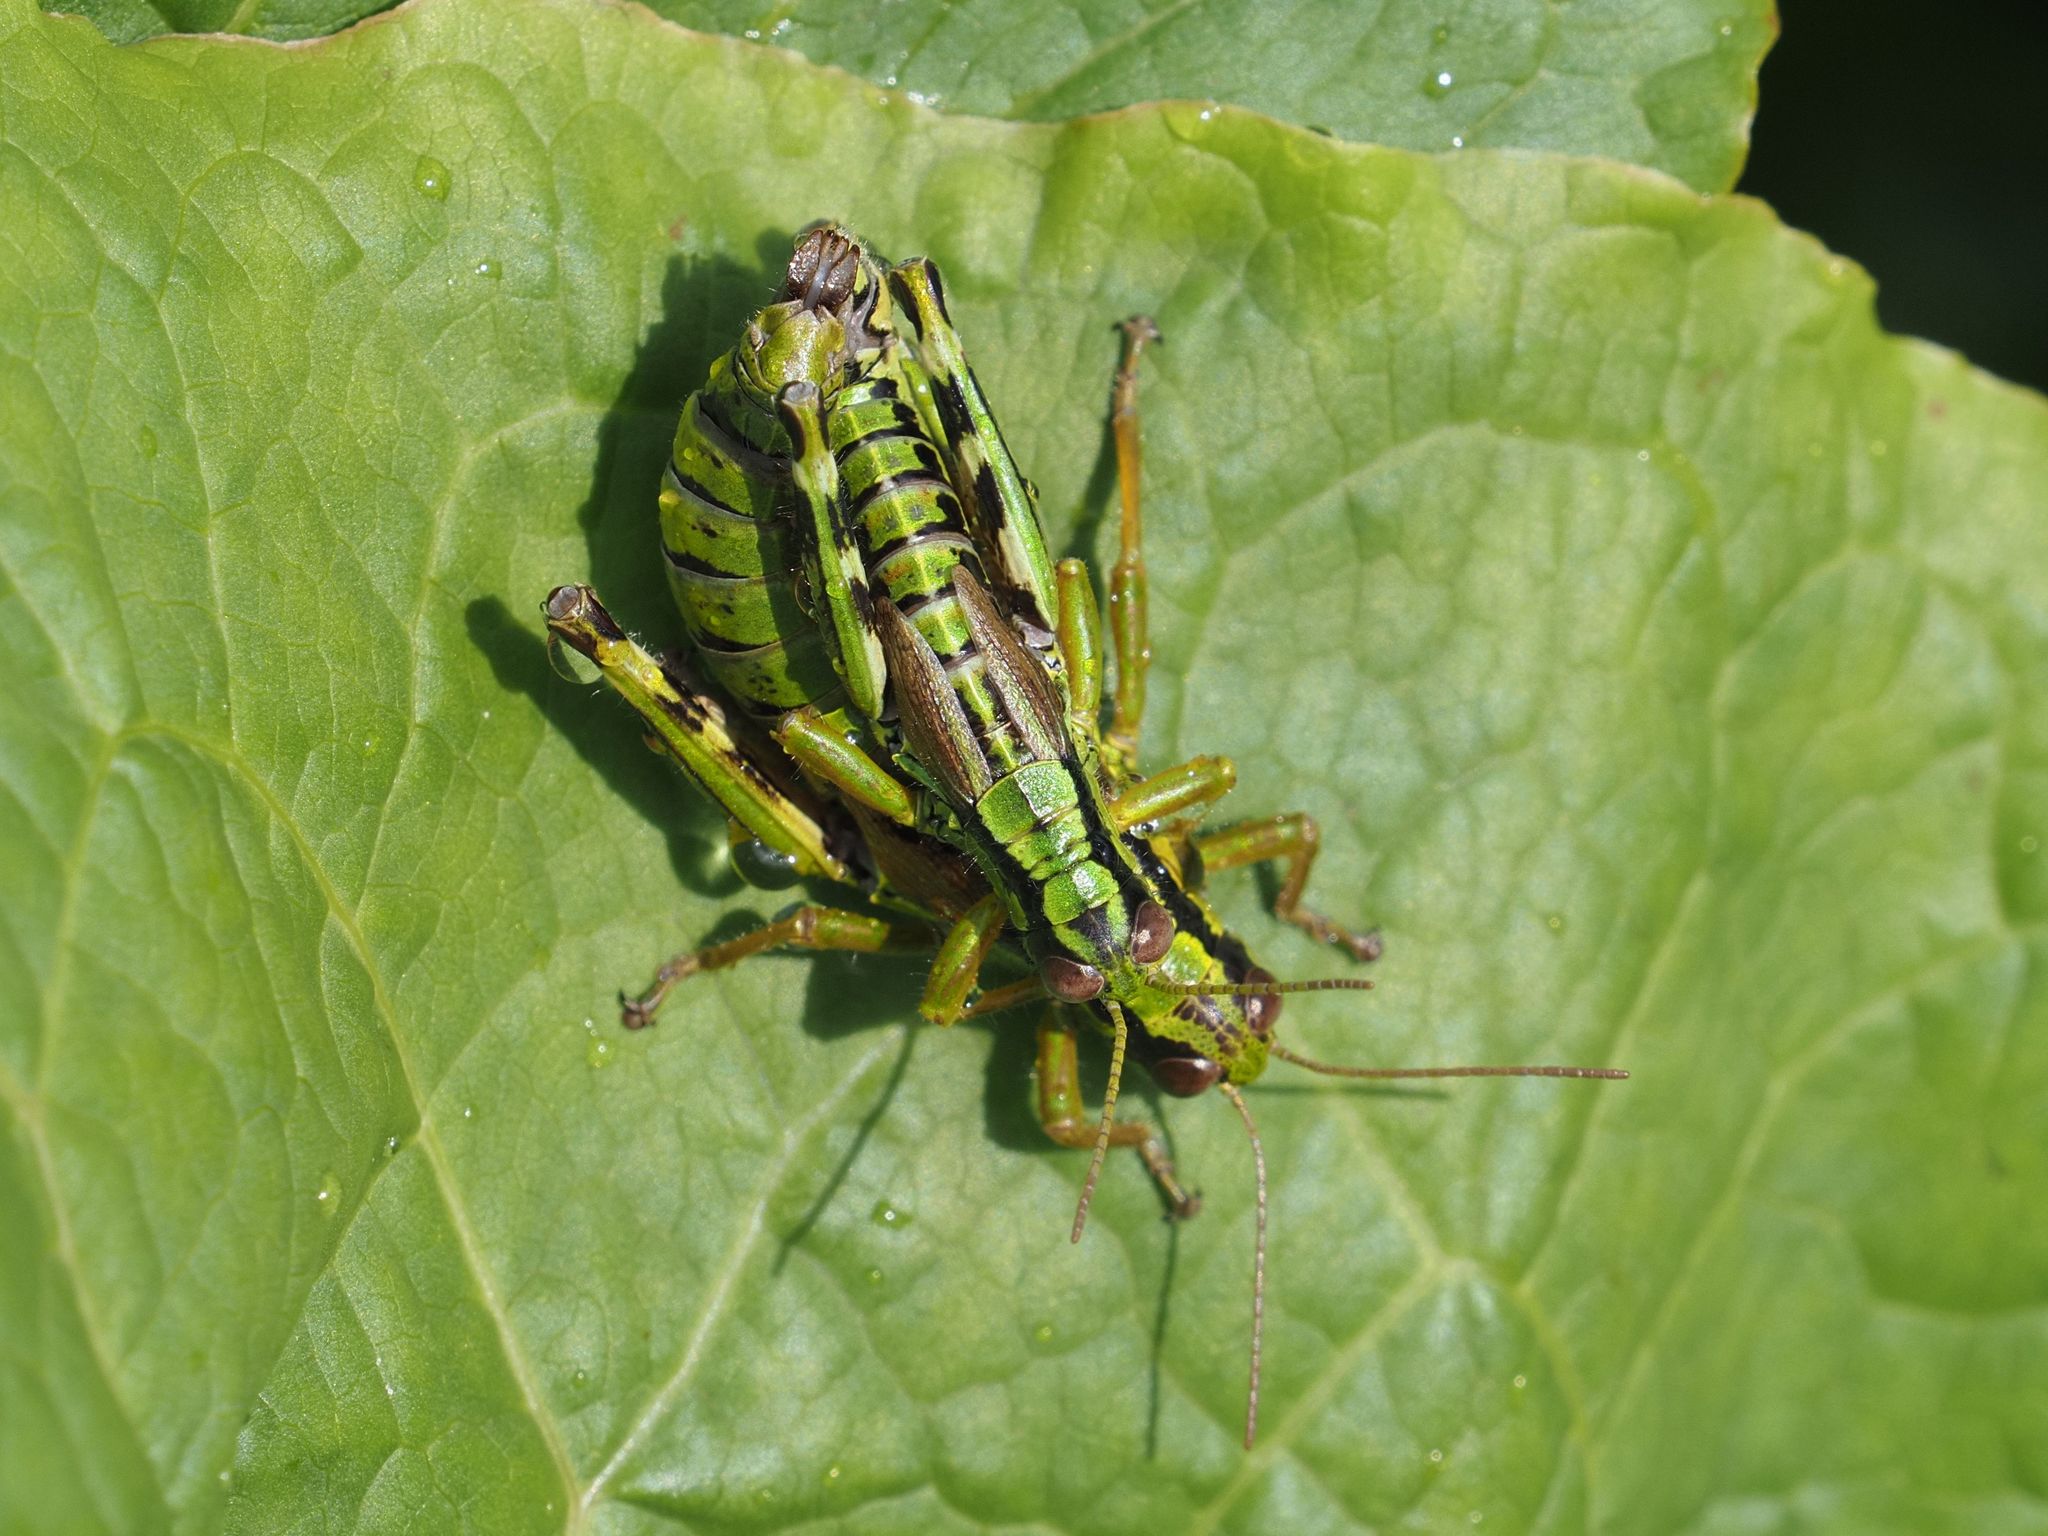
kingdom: Animalia
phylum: Arthropoda
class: Insecta
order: Orthoptera
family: Acrididae
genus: Miramella
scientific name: Miramella alpina
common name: Green mountain grasshopper
